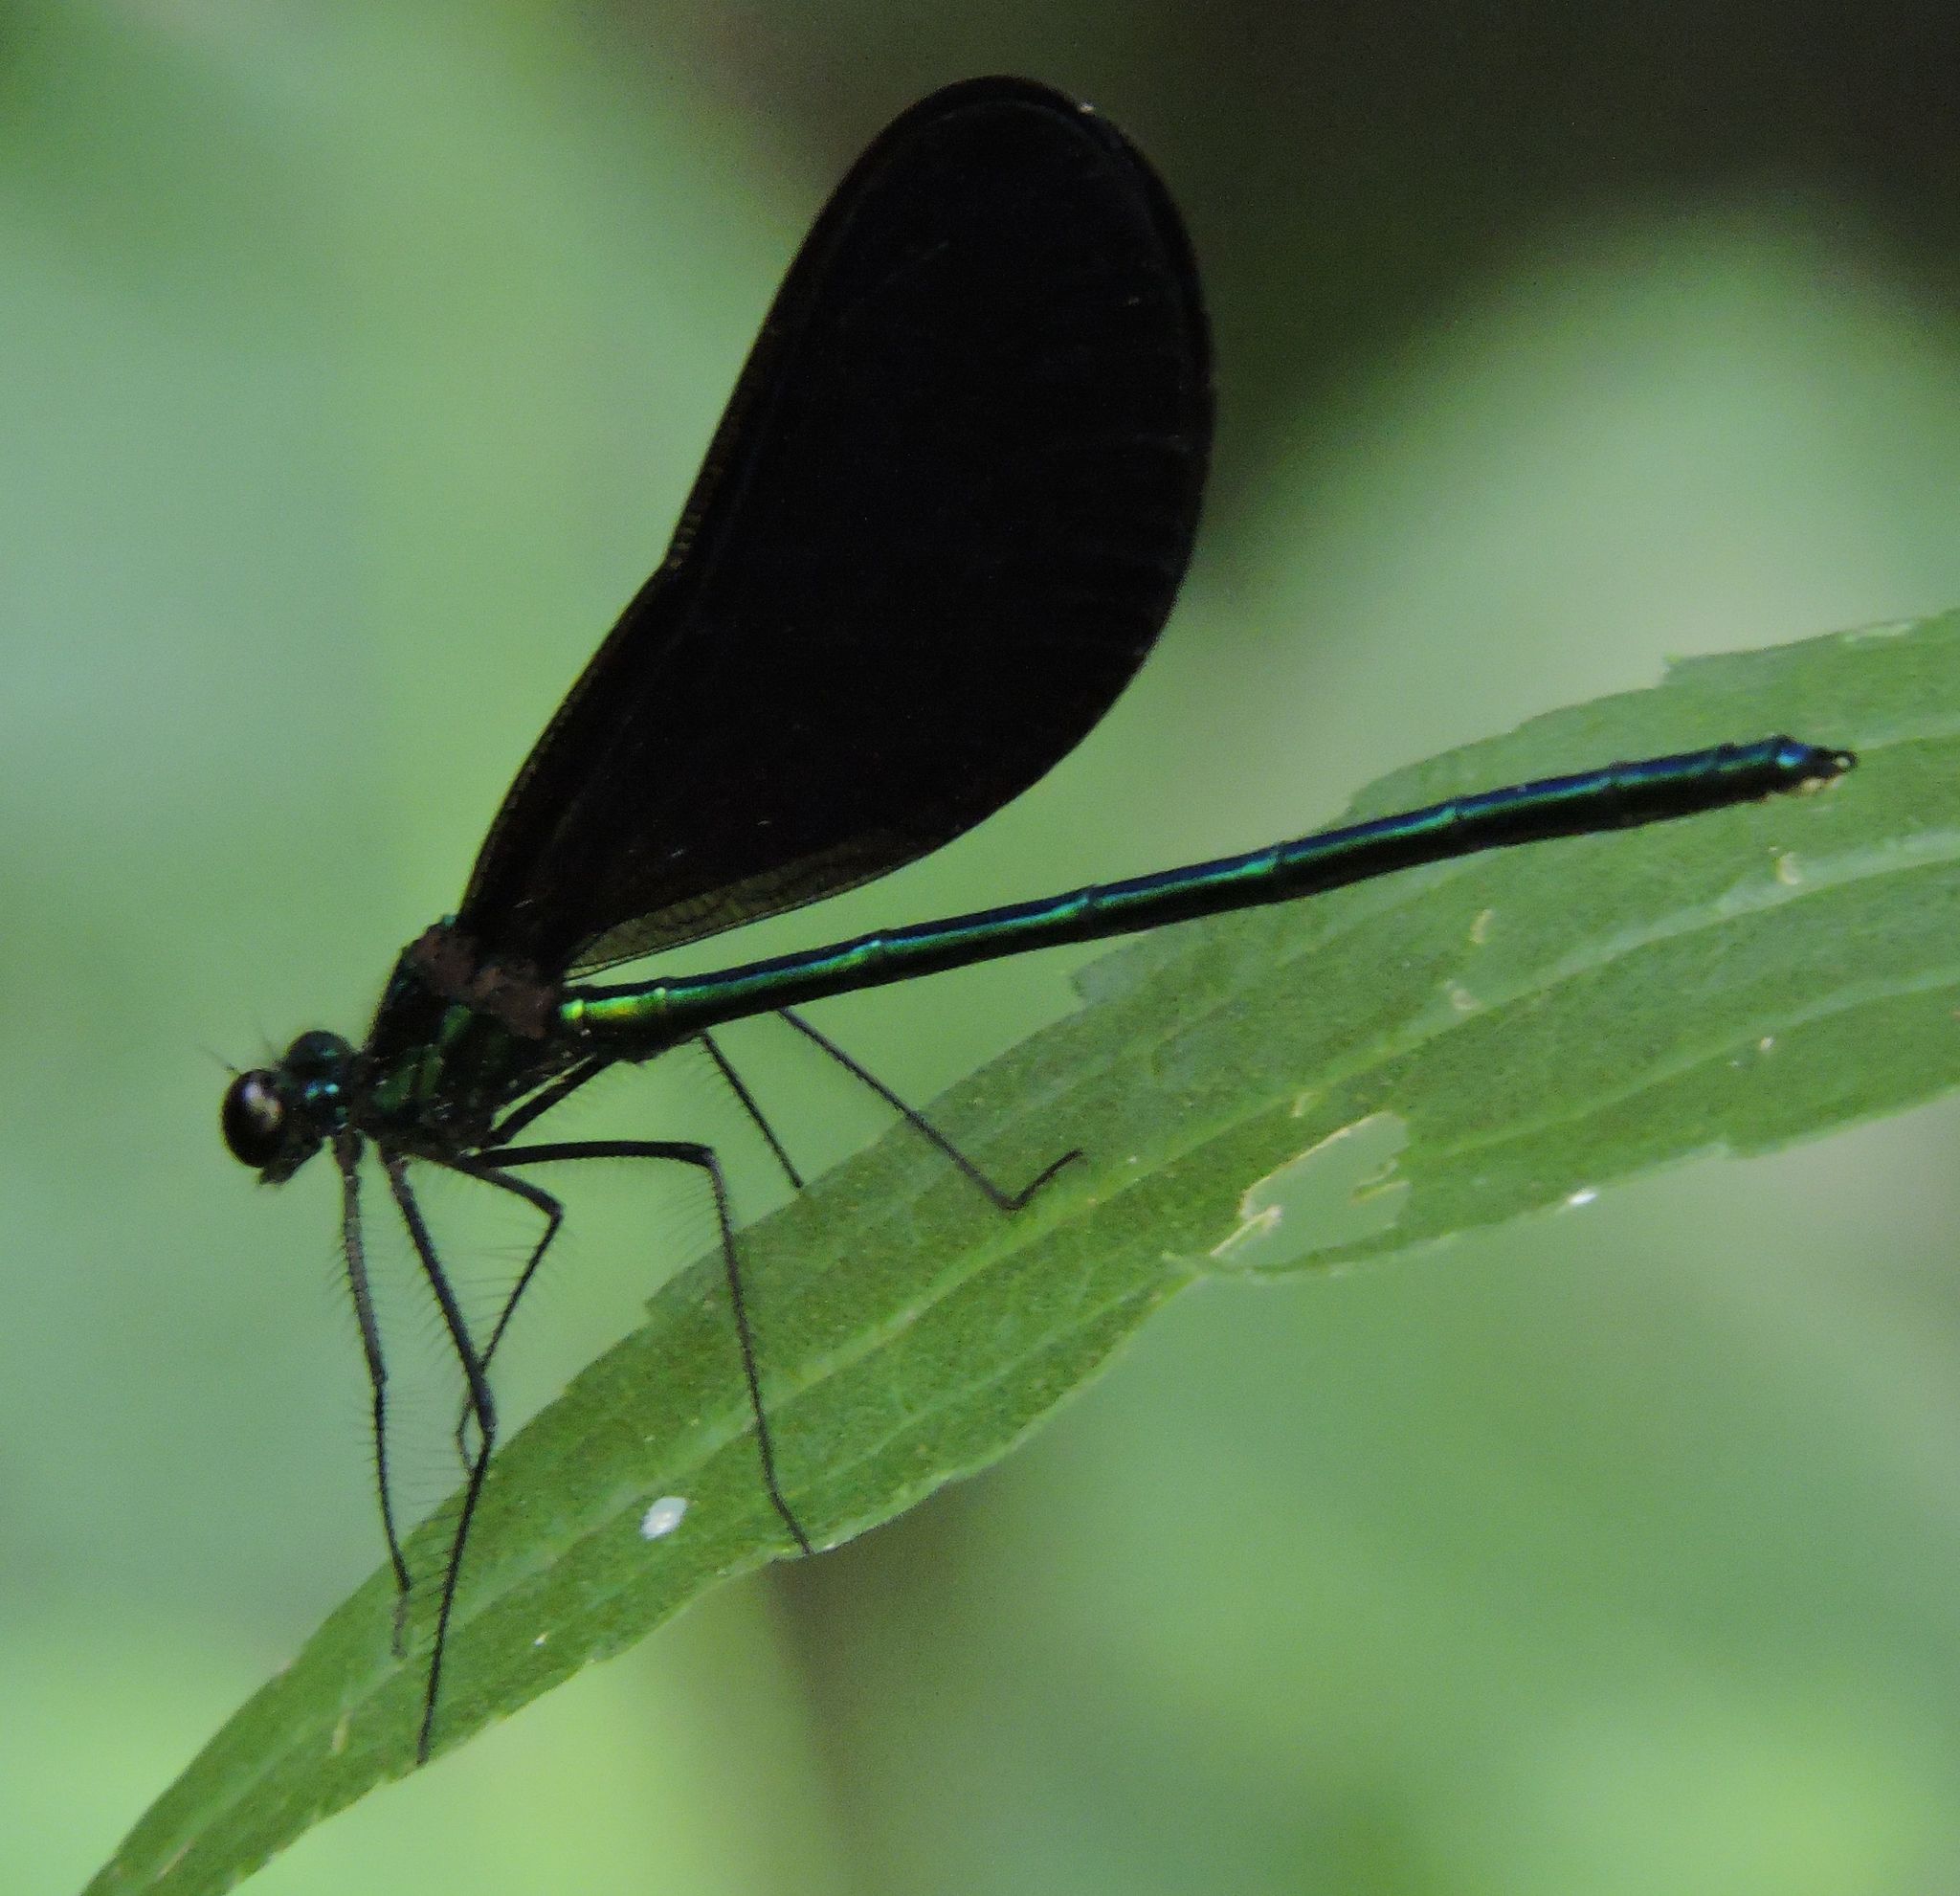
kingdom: Animalia
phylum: Arthropoda
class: Insecta
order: Odonata
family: Calopterygidae
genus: Calopteryx
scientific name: Calopteryx maculata
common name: Ebony jewelwing
